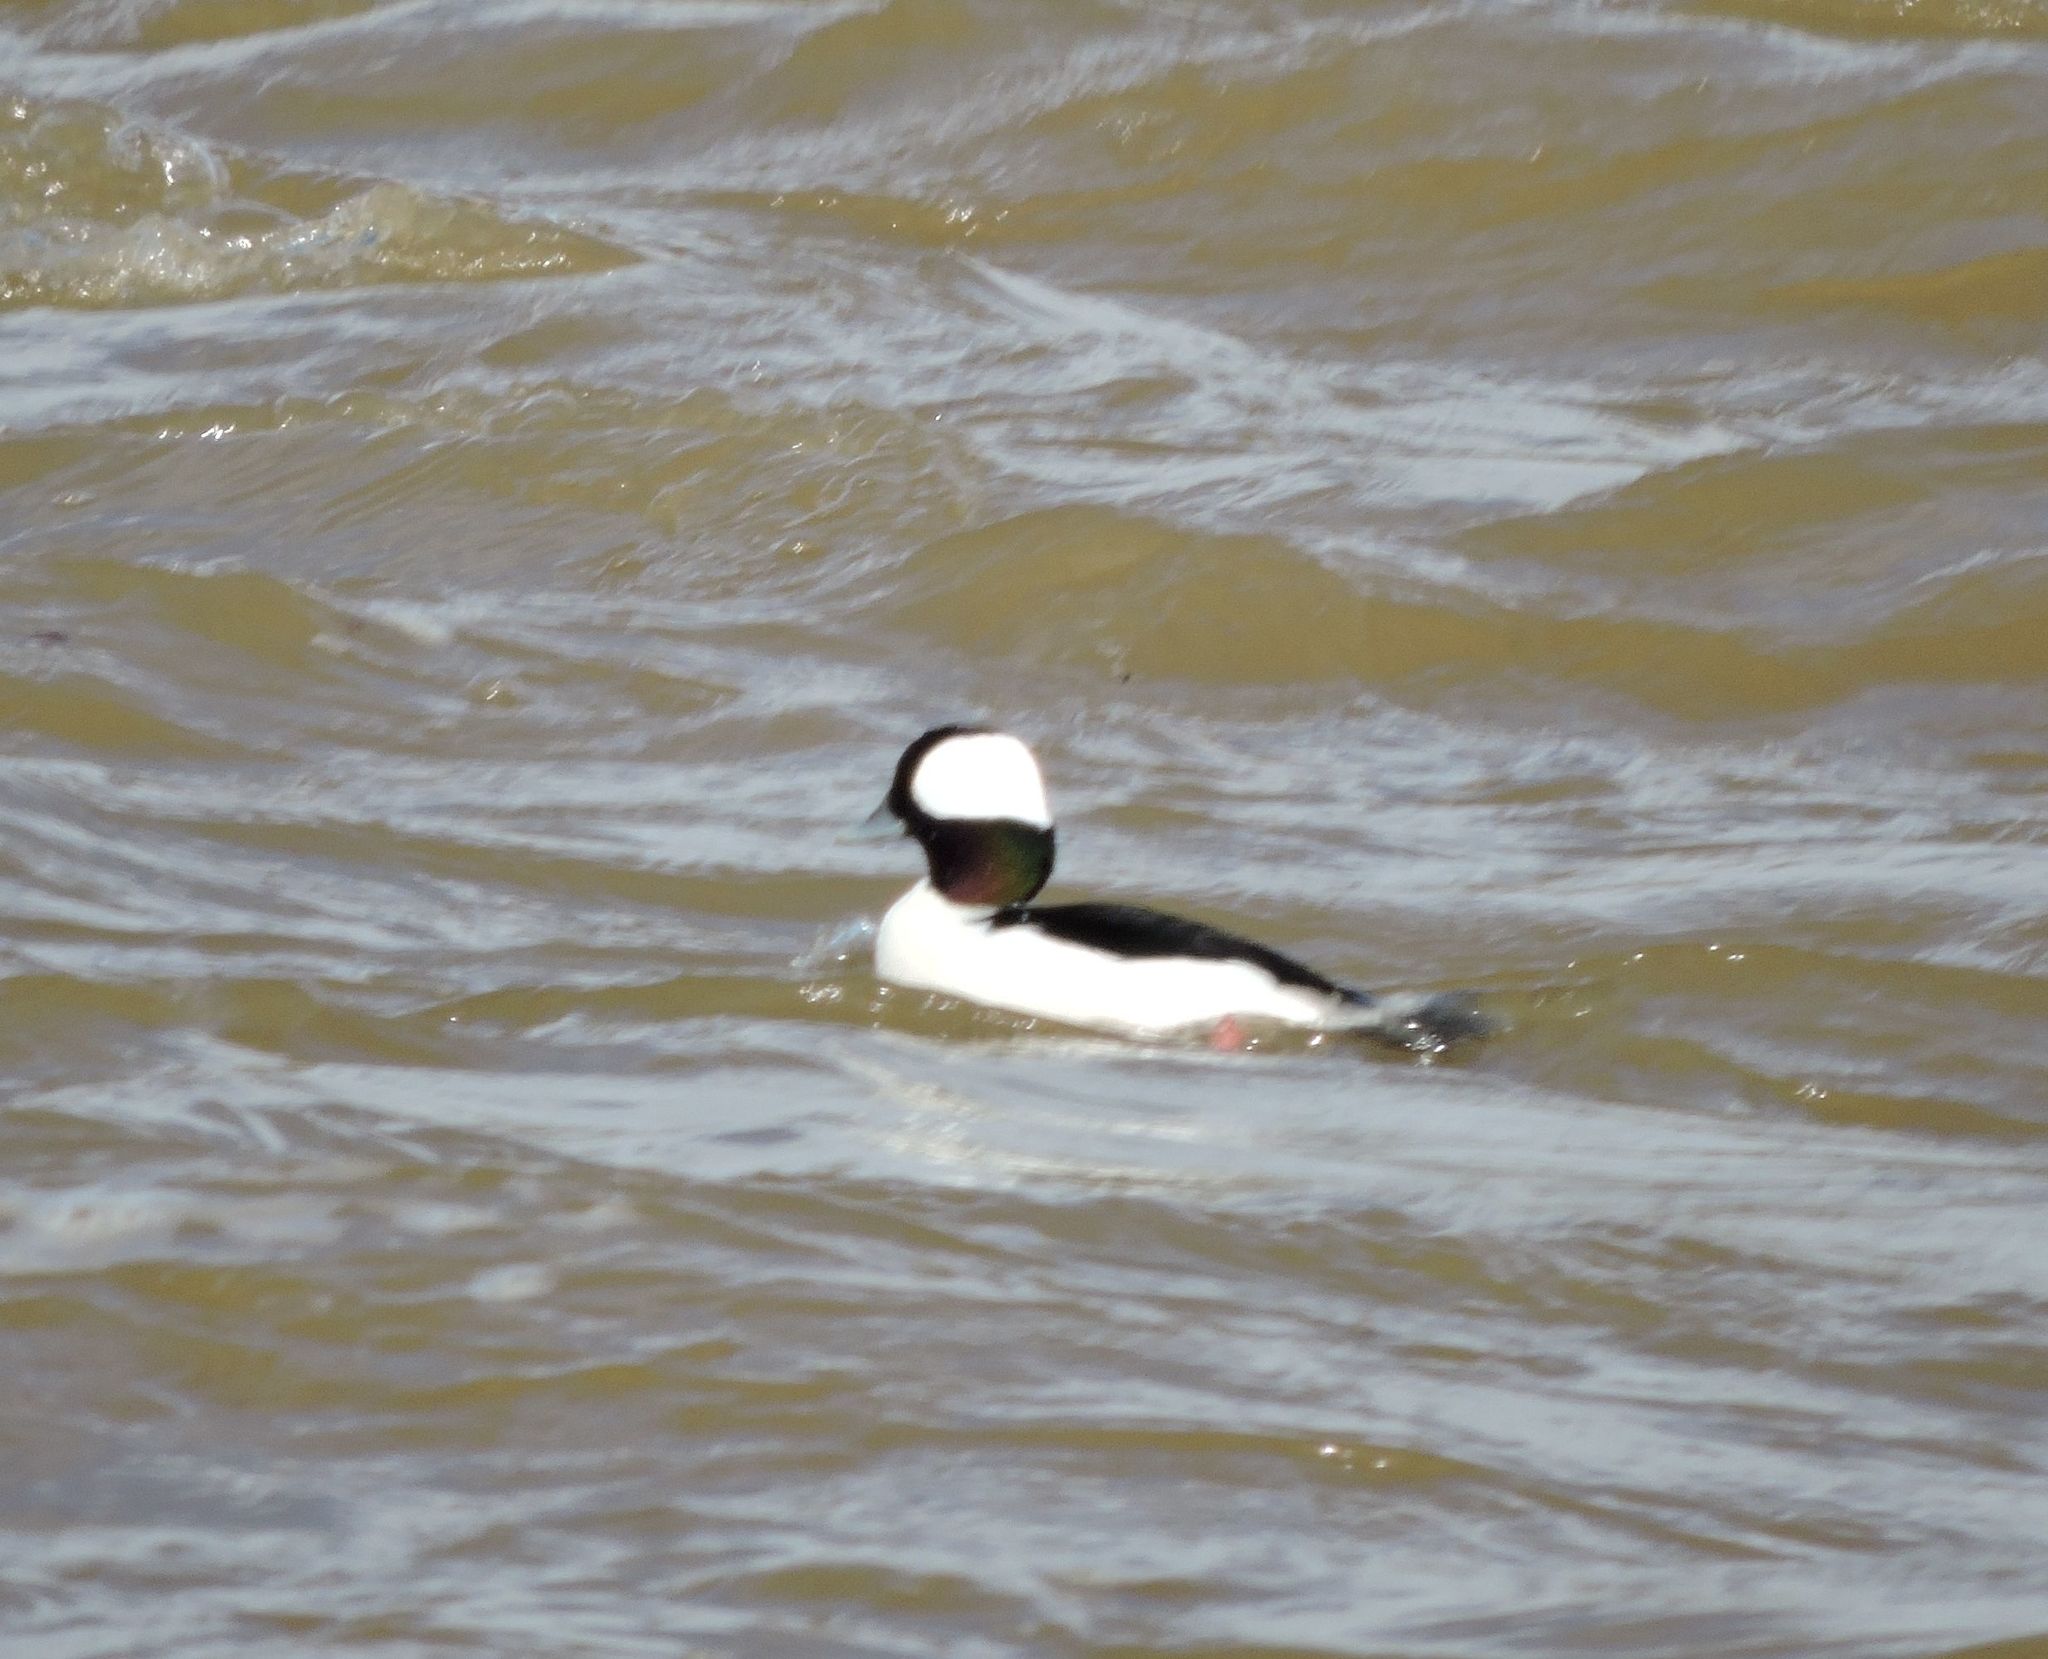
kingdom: Animalia
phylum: Chordata
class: Aves
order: Anseriformes
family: Anatidae
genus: Bucephala
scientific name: Bucephala albeola
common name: Bufflehead
